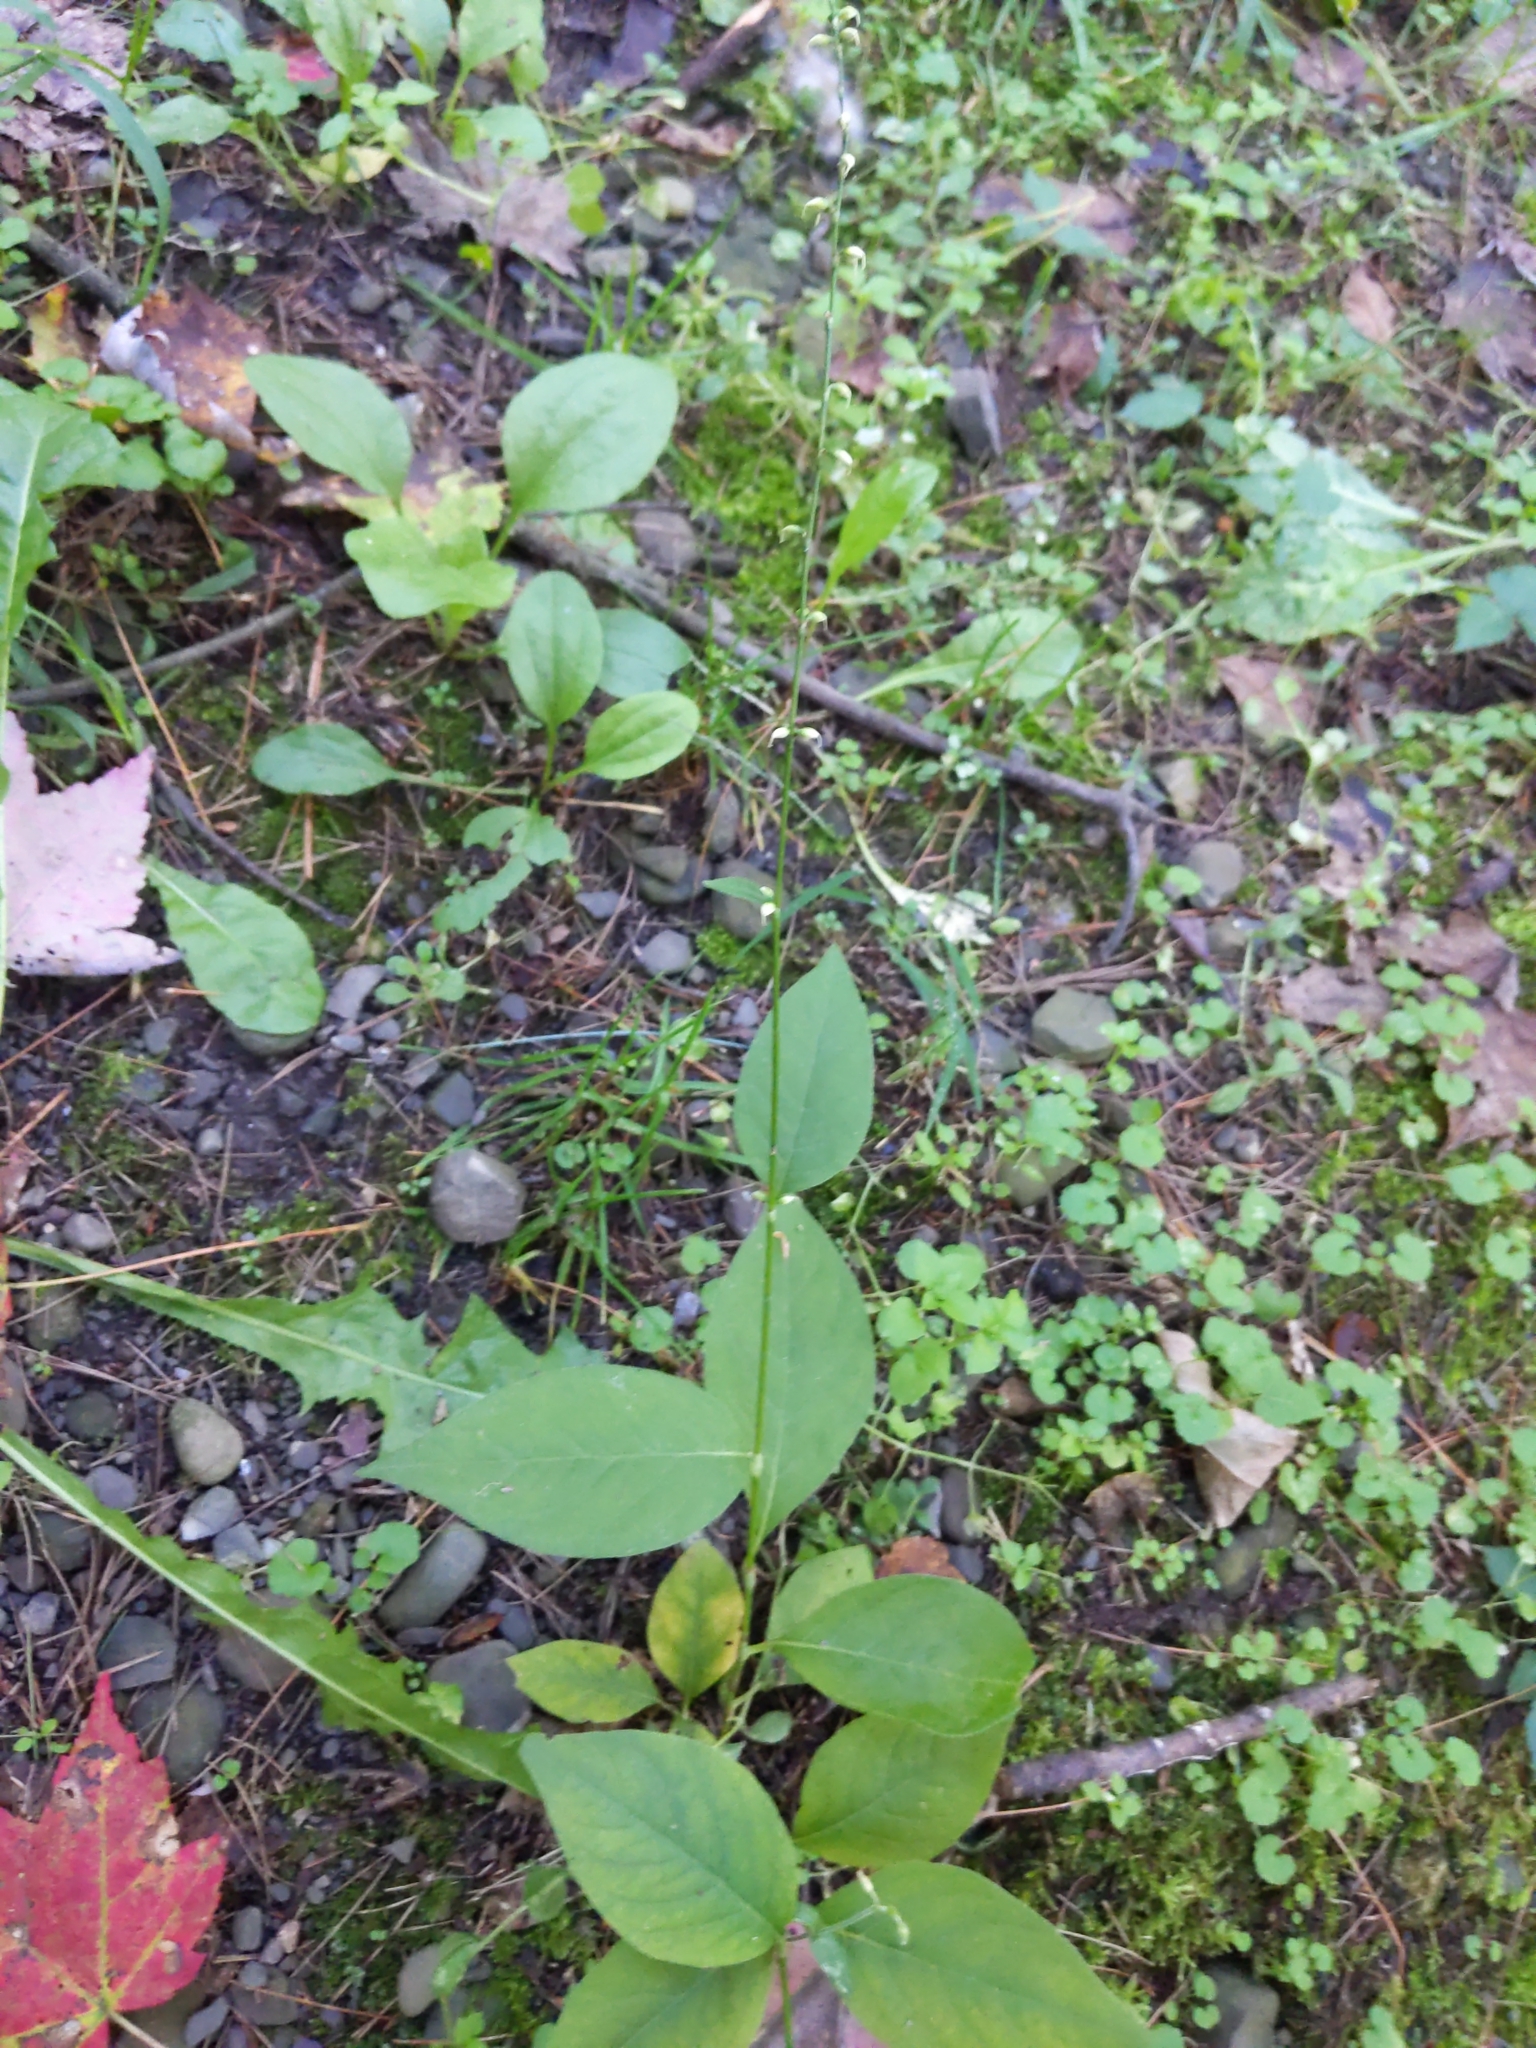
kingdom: Plantae
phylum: Tracheophyta
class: Magnoliopsida
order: Caryophyllales
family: Polygonaceae
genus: Persicaria
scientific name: Persicaria virginiana
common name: Jumpseed
